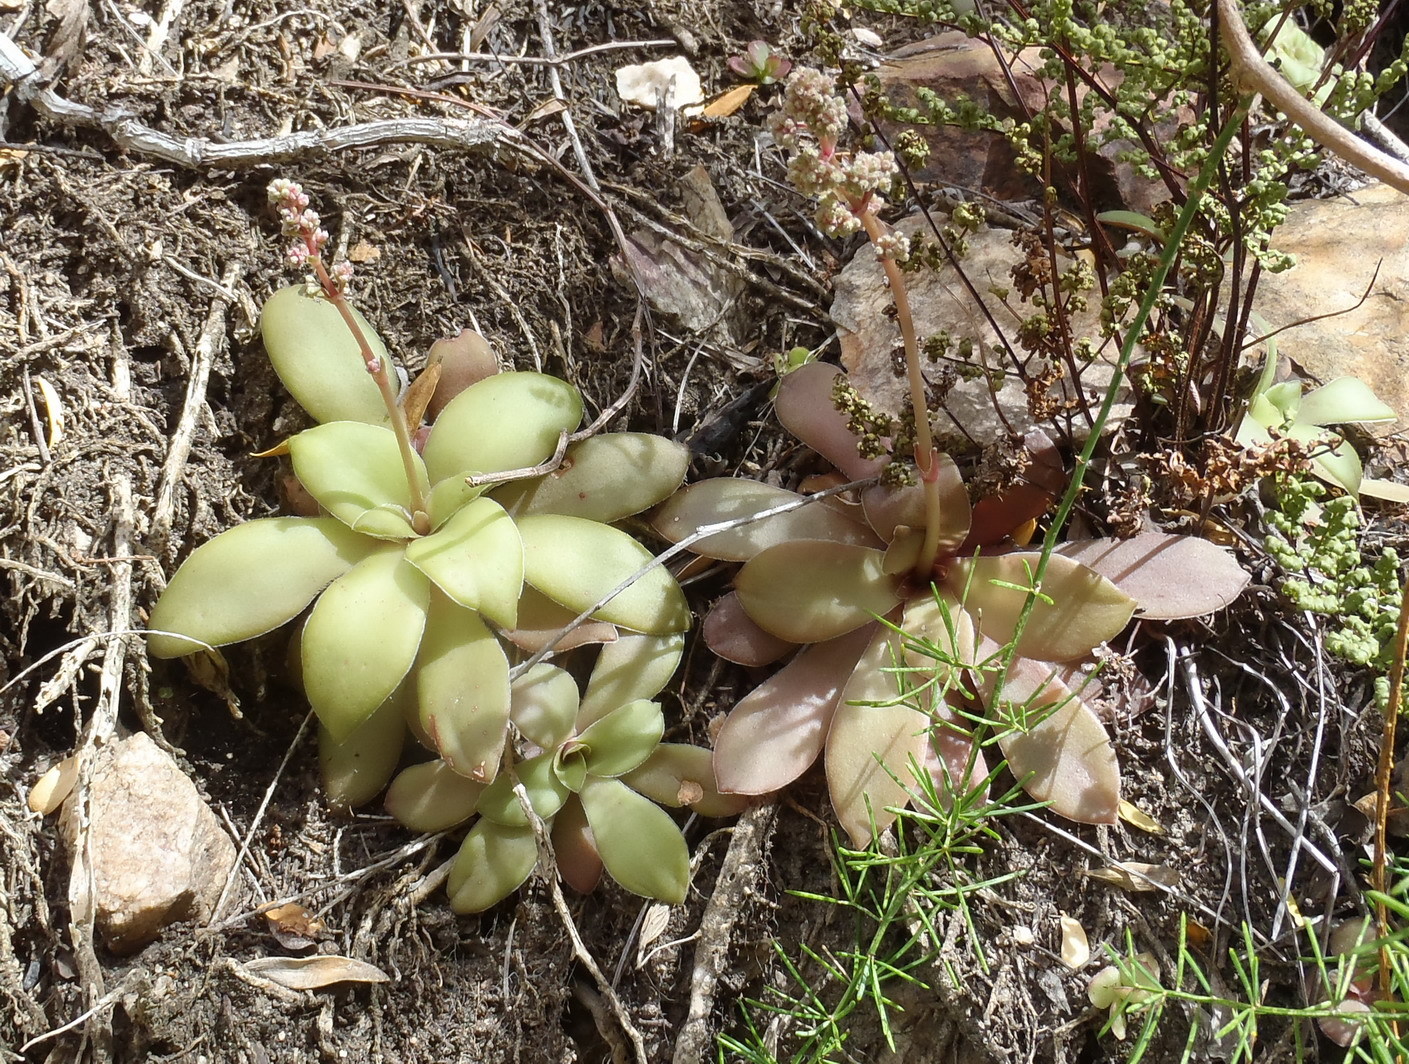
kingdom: Plantae
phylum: Tracheophyta
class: Magnoliopsida
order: Saxifragales
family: Crassulaceae
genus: Crassula
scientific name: Crassula orbicularis
